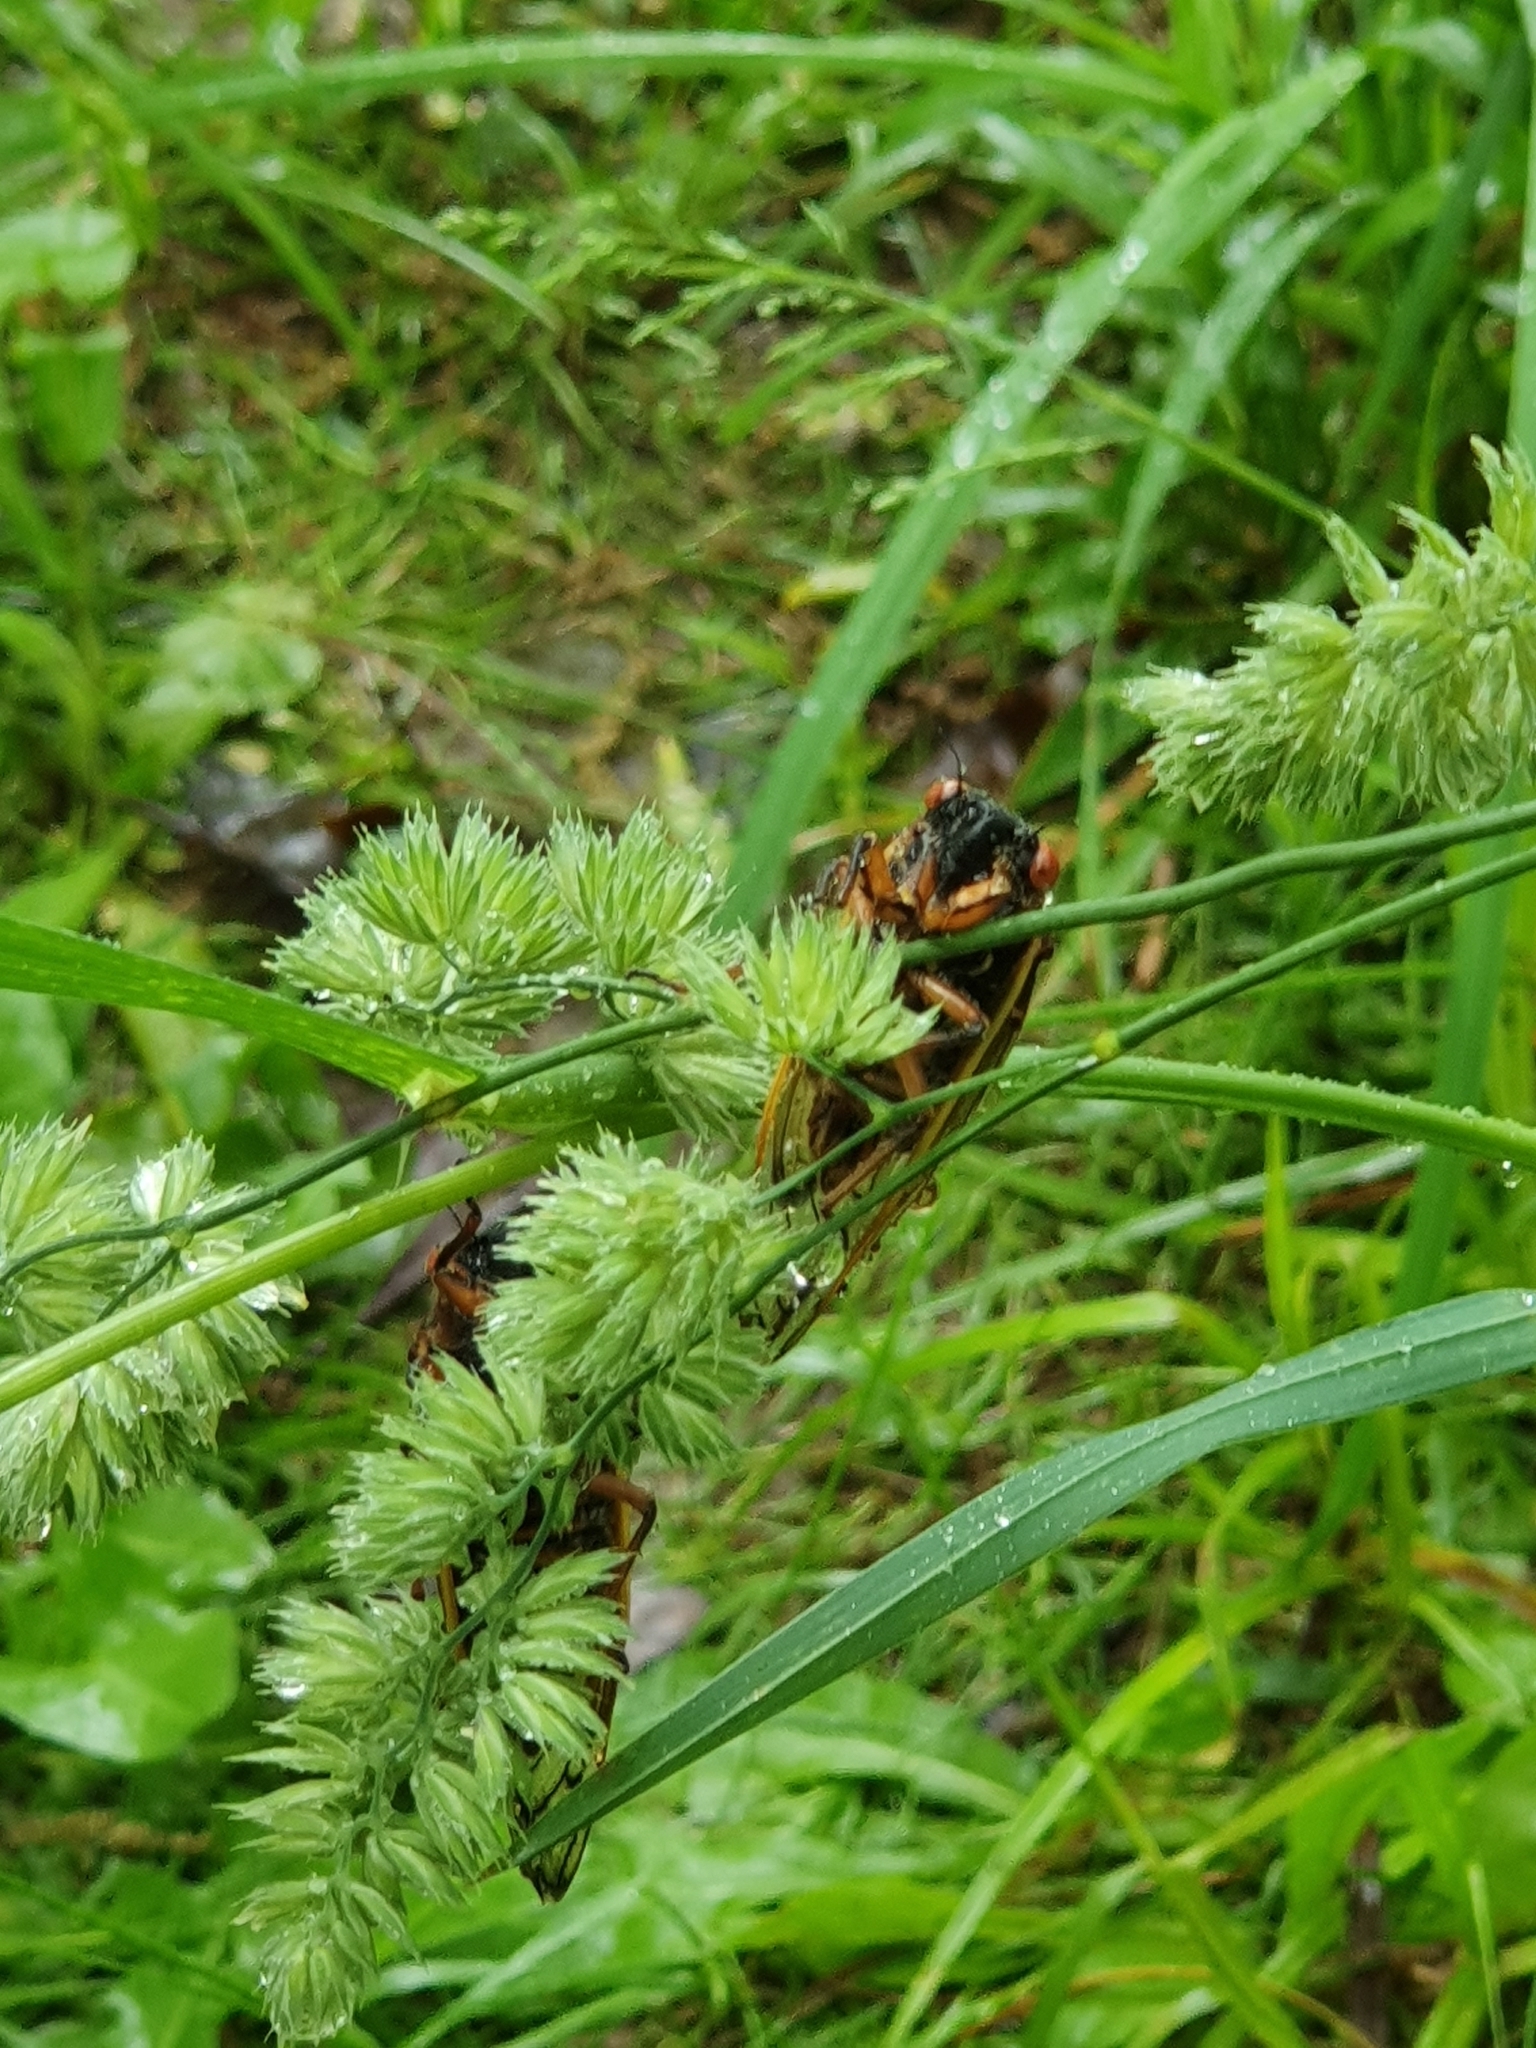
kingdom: Animalia
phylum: Arthropoda
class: Insecta
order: Hemiptera
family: Cicadidae
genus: Magicicada
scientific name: Magicicada septendecim
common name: Periodical cicada
